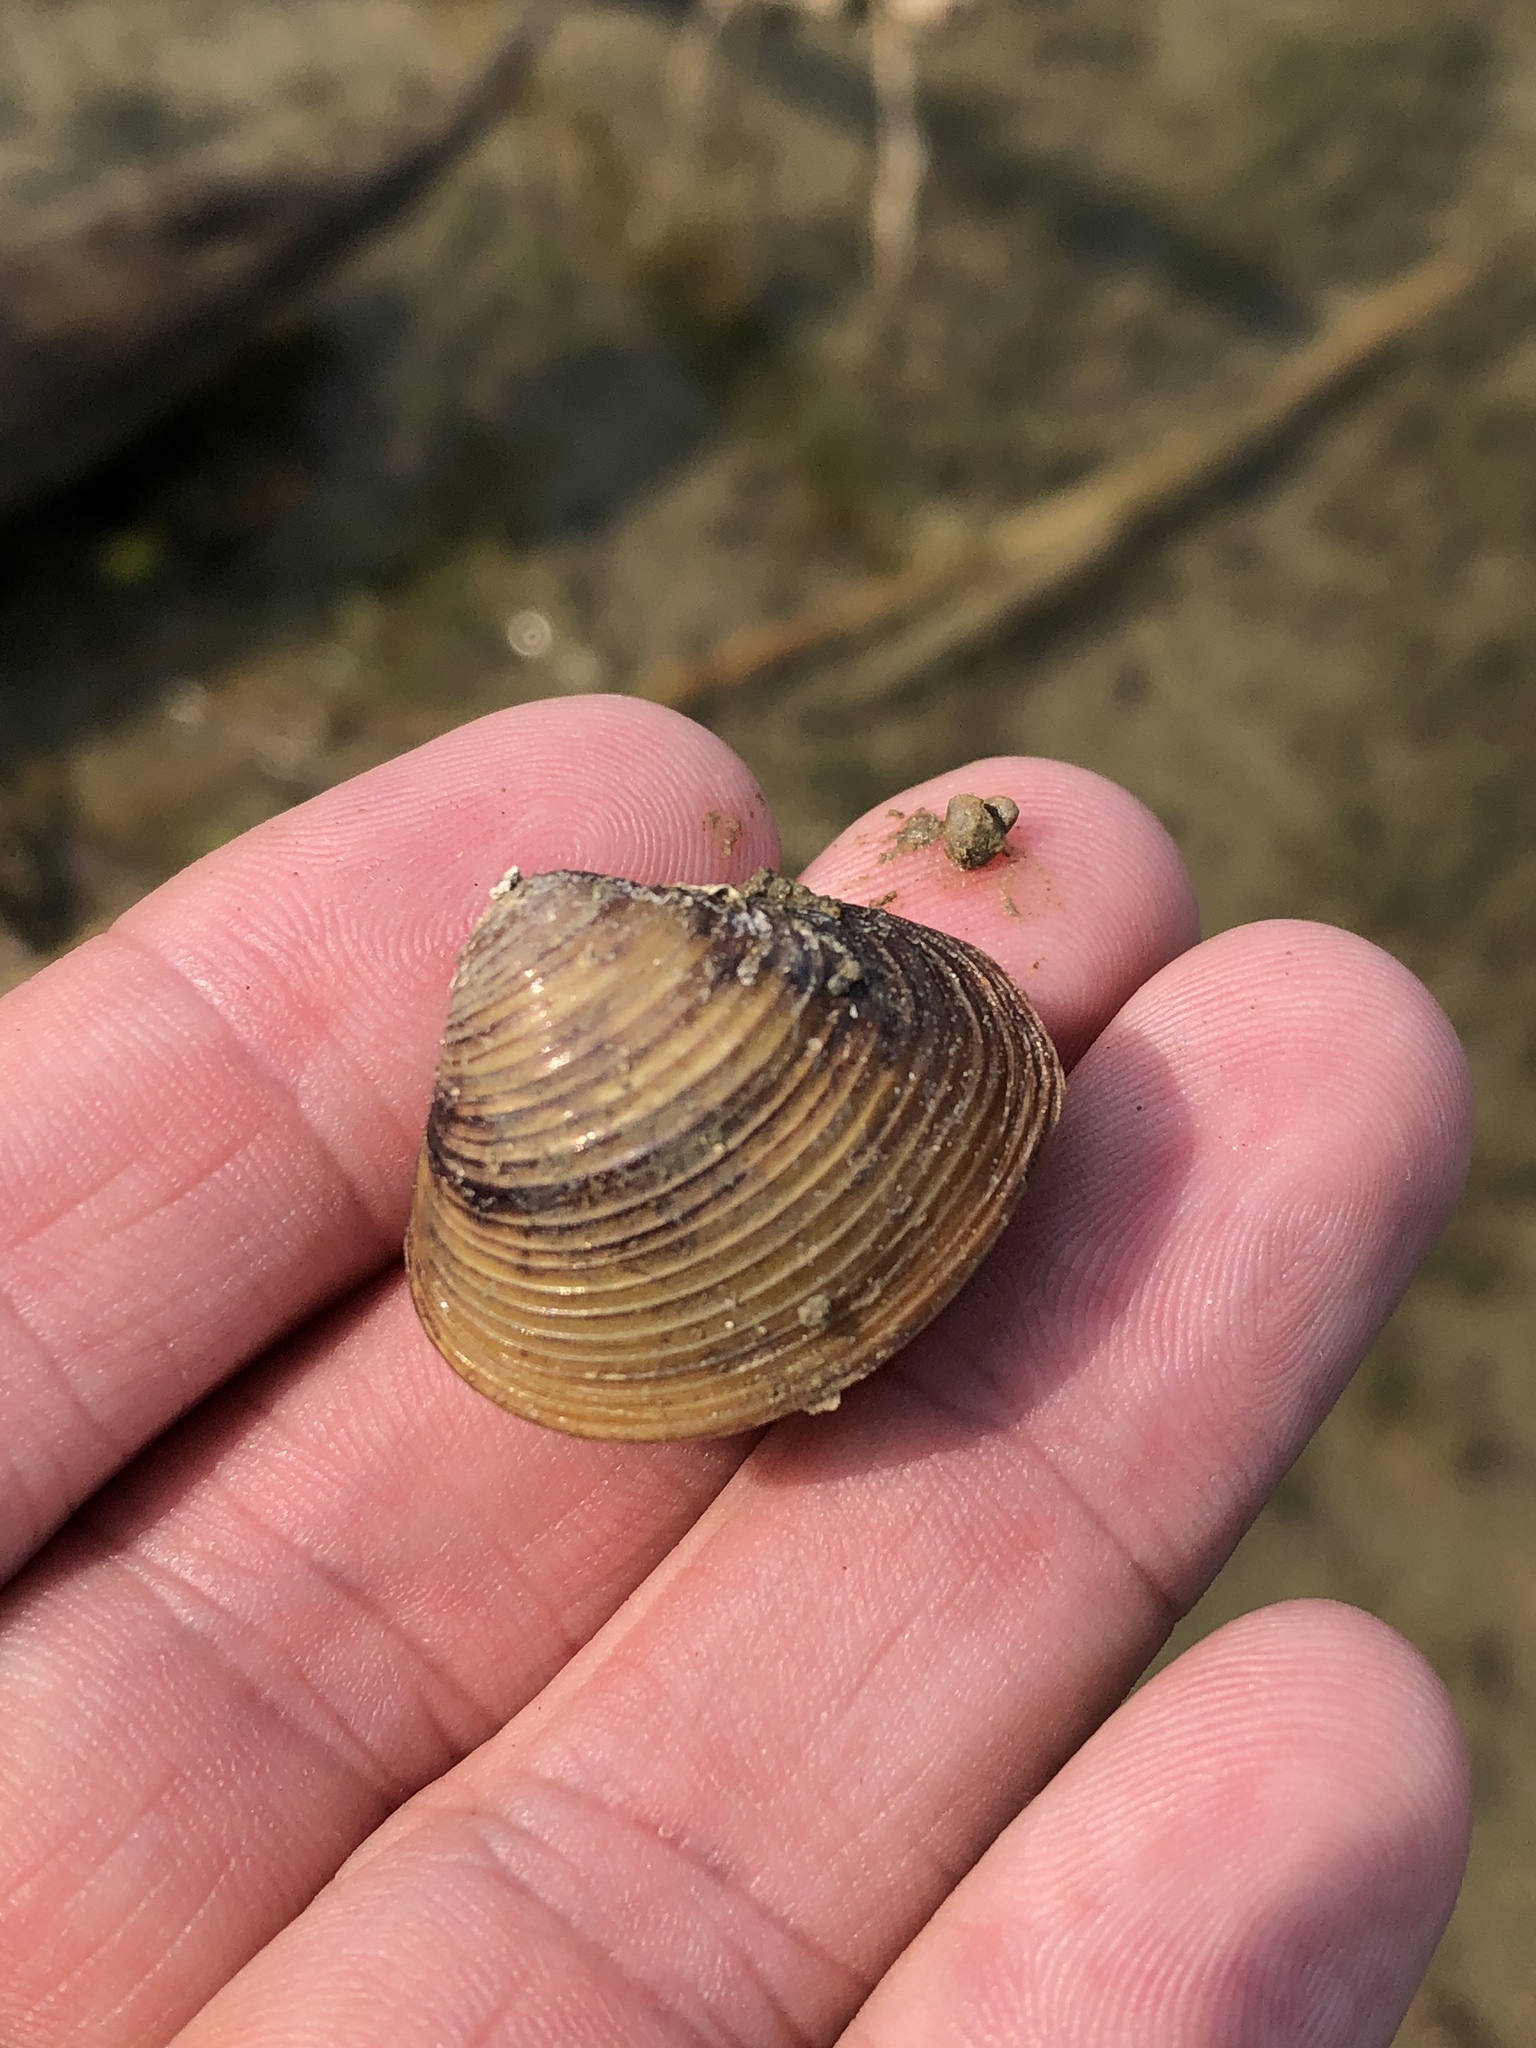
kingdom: Animalia
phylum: Mollusca
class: Bivalvia
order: Venerida
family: Cyrenidae
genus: Corbicula
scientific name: Corbicula fluminea
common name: Asian clam
